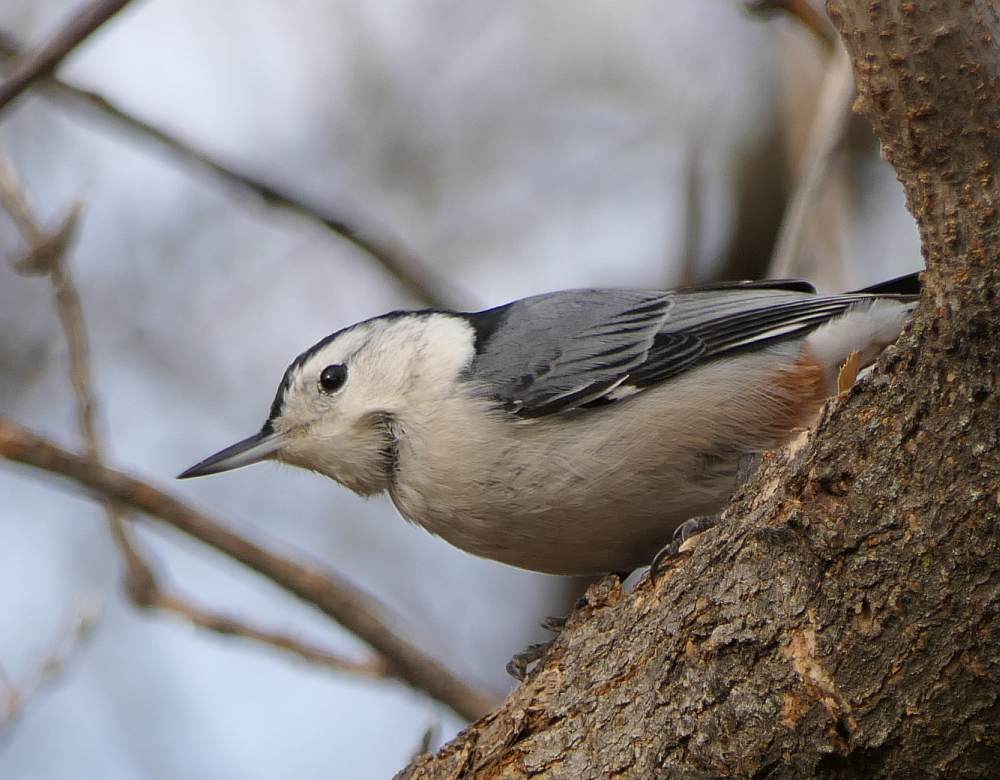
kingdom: Animalia
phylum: Chordata
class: Aves
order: Passeriformes
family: Sittidae
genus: Sitta
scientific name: Sitta carolinensis
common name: White-breasted nuthatch
